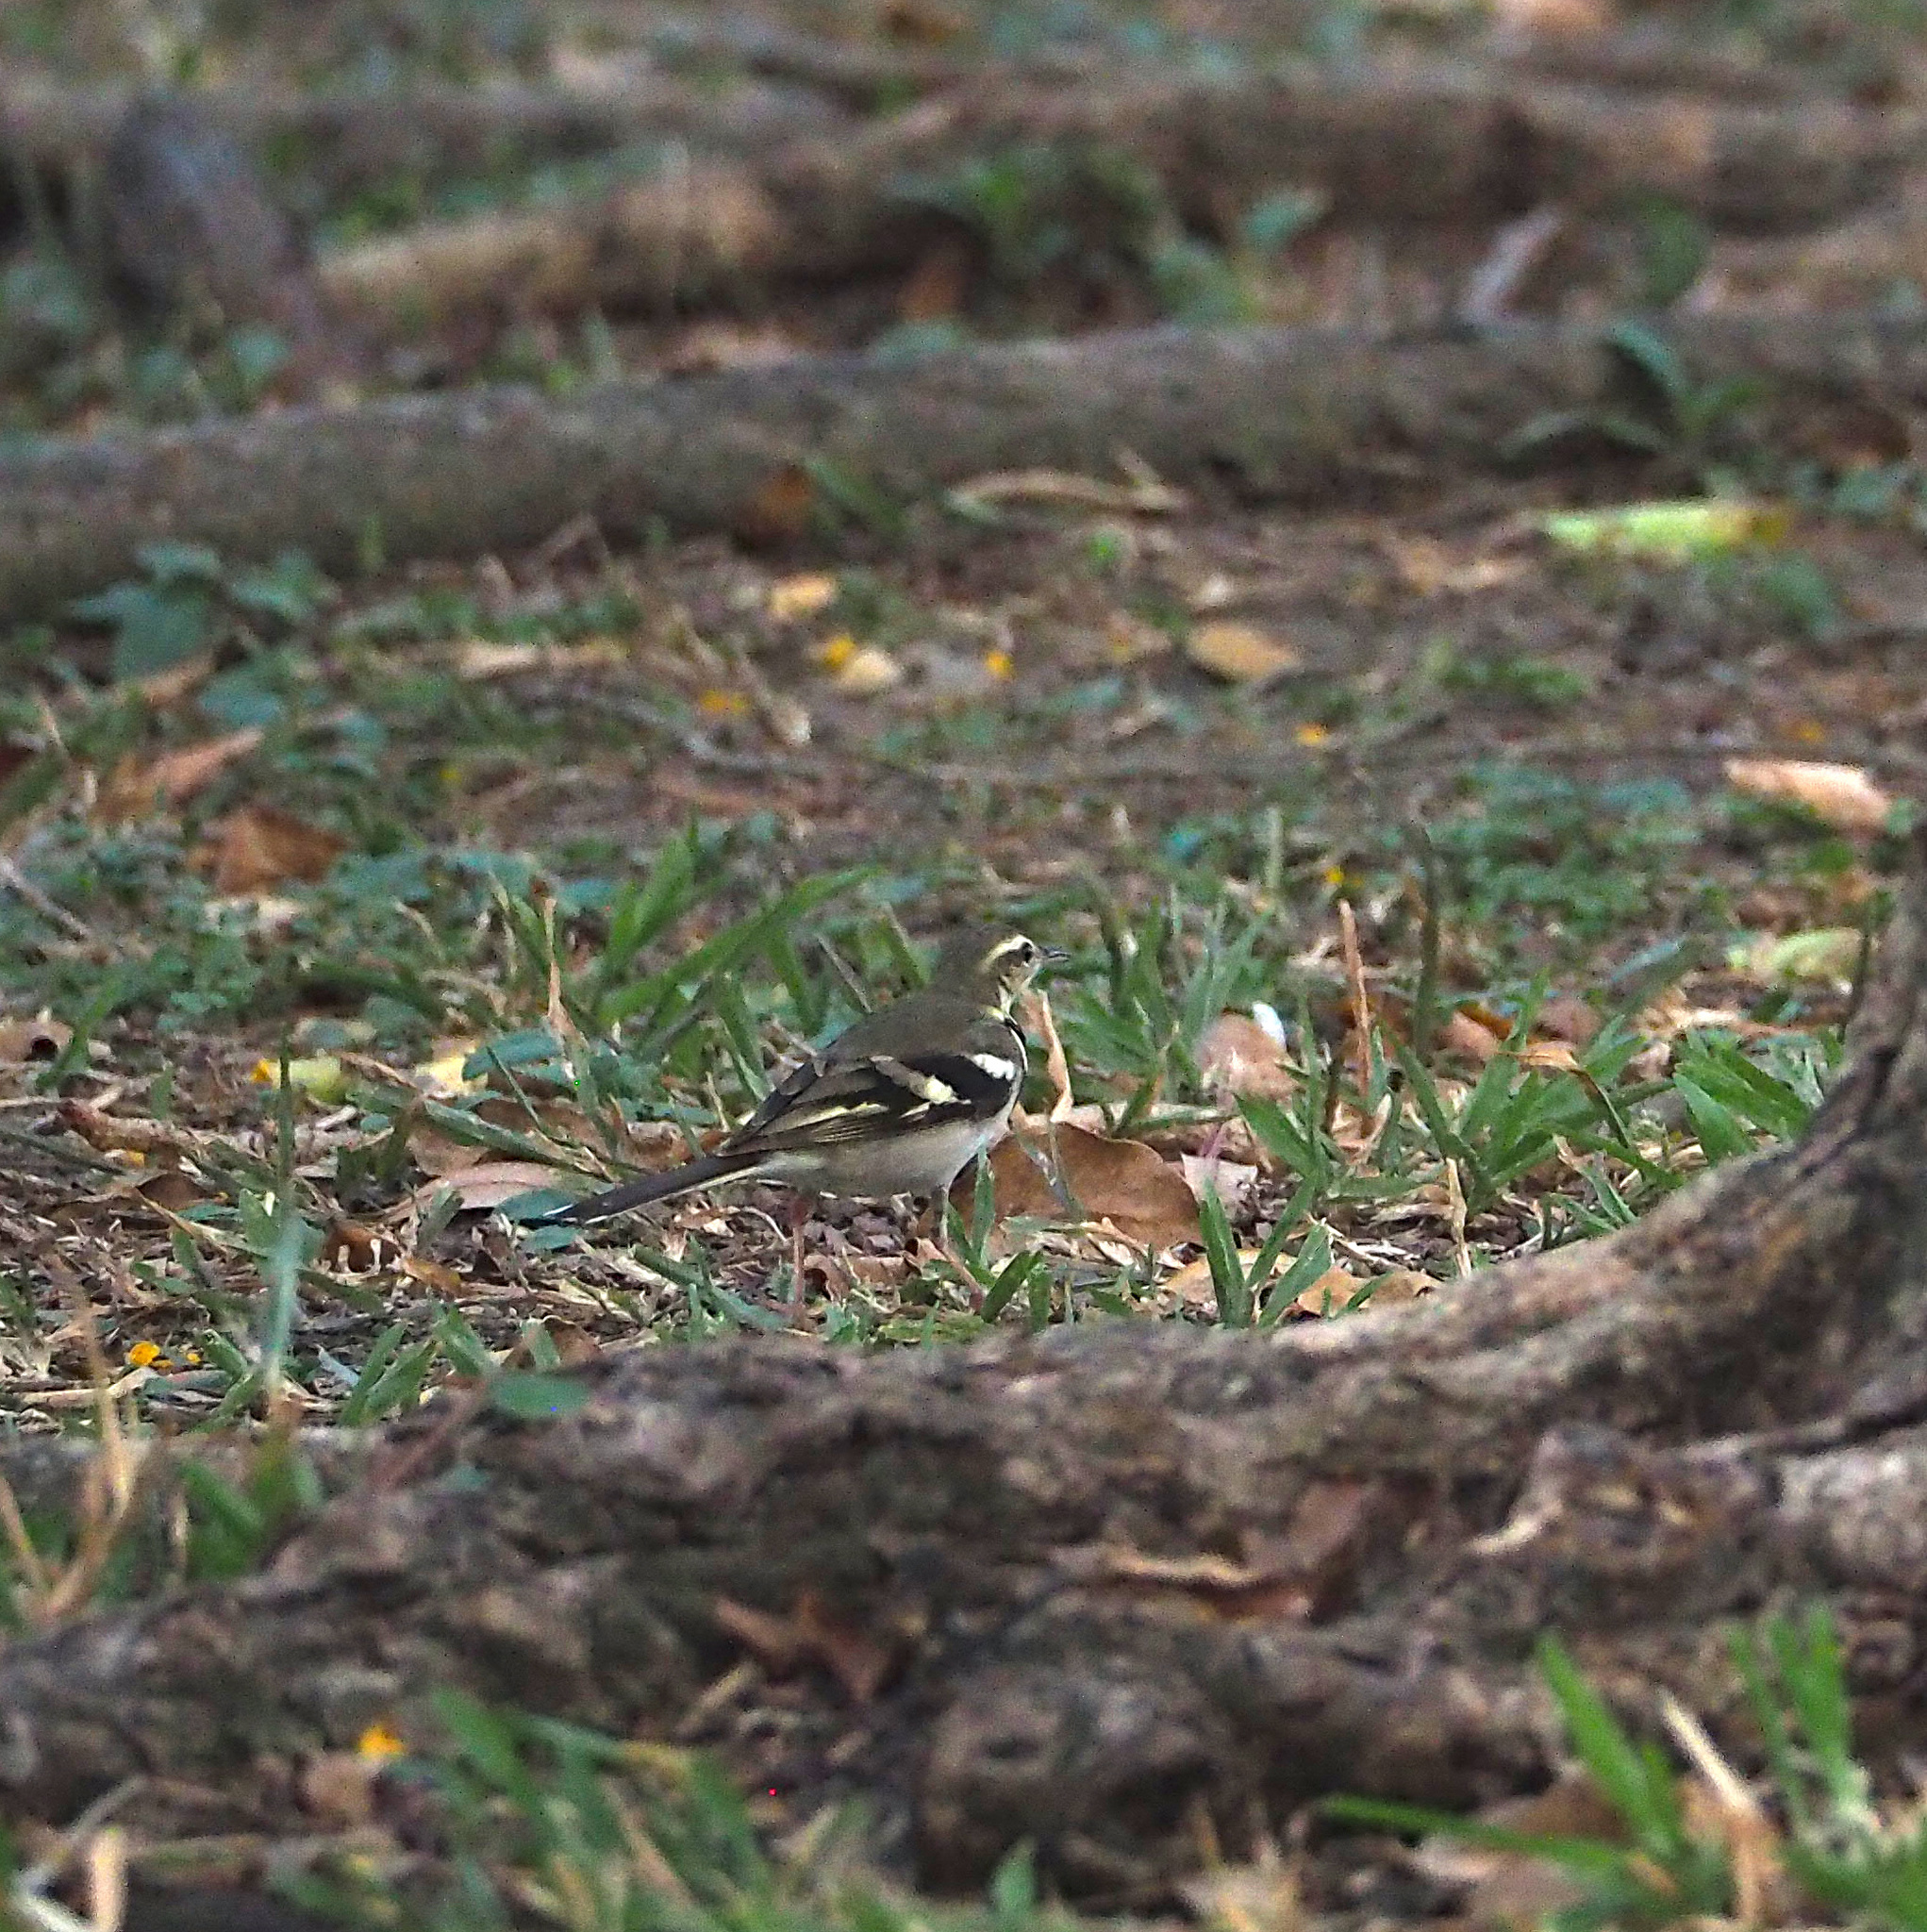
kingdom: Animalia
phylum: Chordata
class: Aves
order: Passeriformes
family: Motacillidae
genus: Dendronanthus
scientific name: Dendronanthus indicus
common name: Forest wagtail
